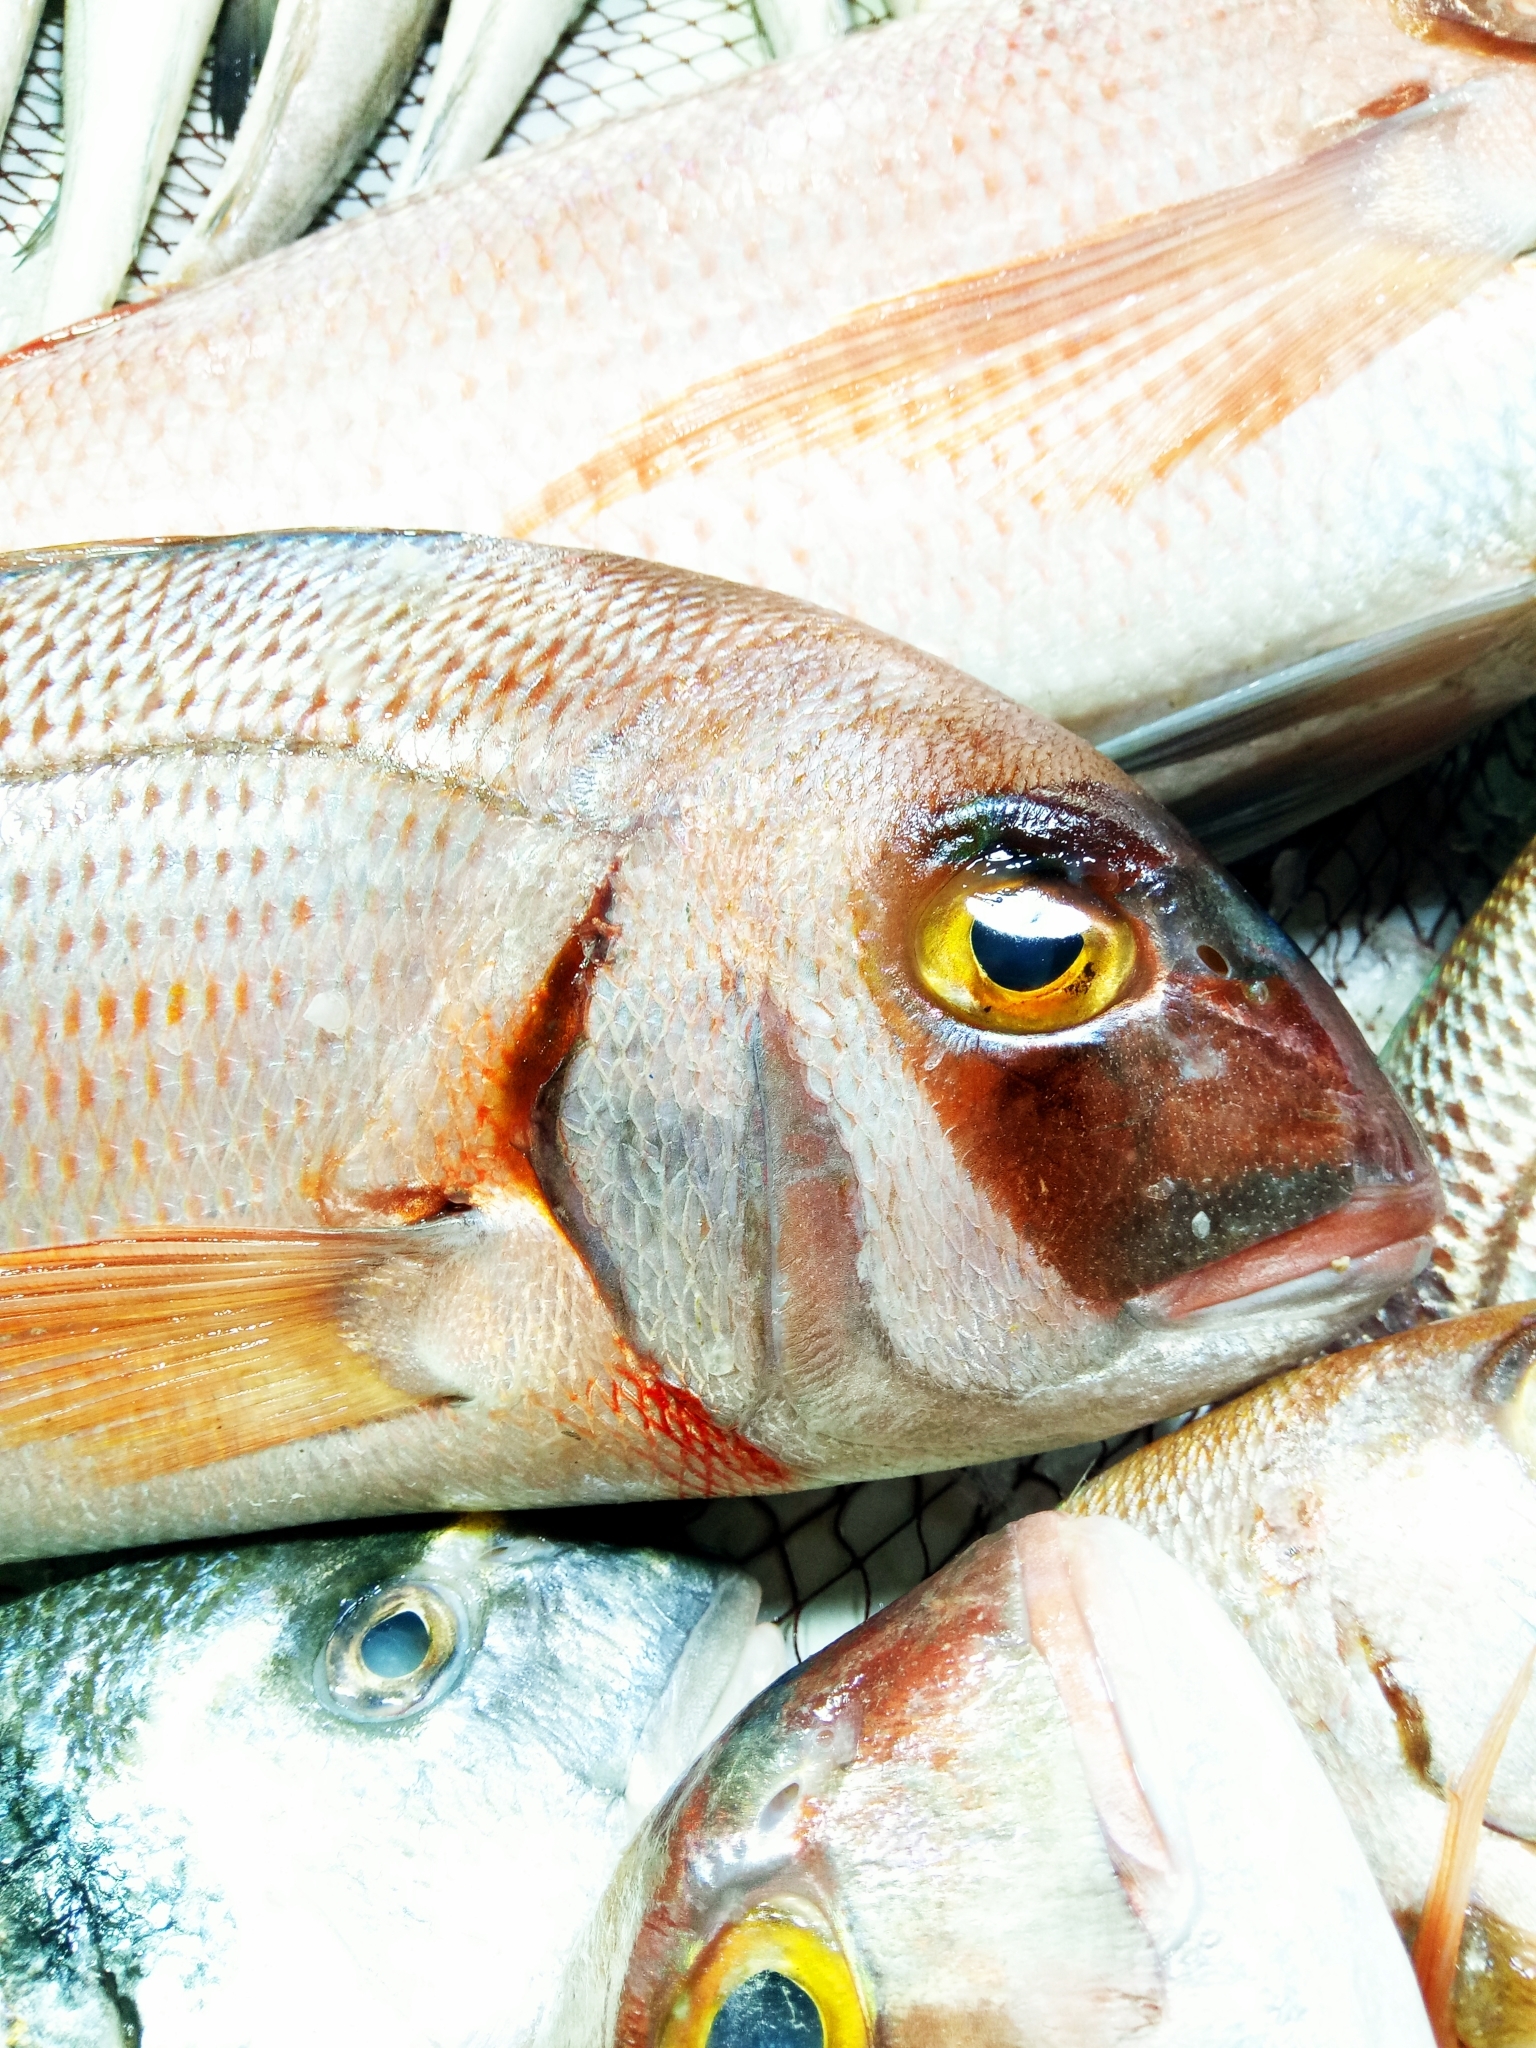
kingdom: Animalia
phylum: Chordata
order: Perciformes
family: Sparidae
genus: Pagrus
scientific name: Pagrus pagrus
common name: Red porgy
